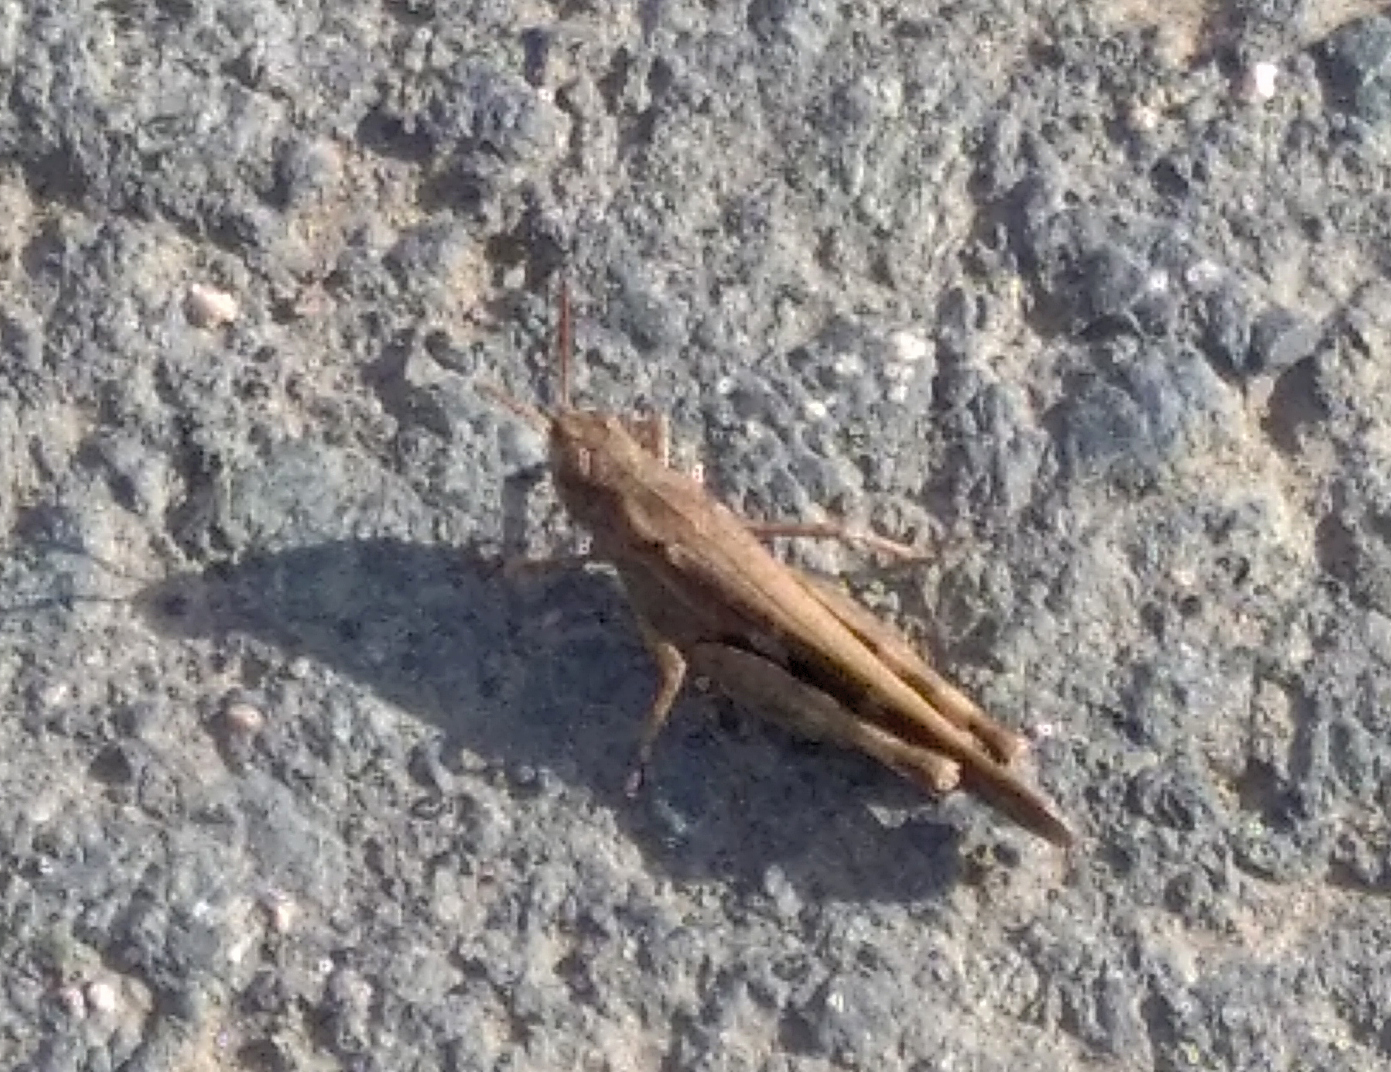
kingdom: Animalia
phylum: Arthropoda
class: Insecta
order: Orthoptera
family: Acrididae
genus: Aiolopus
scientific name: Aiolopus strepens
